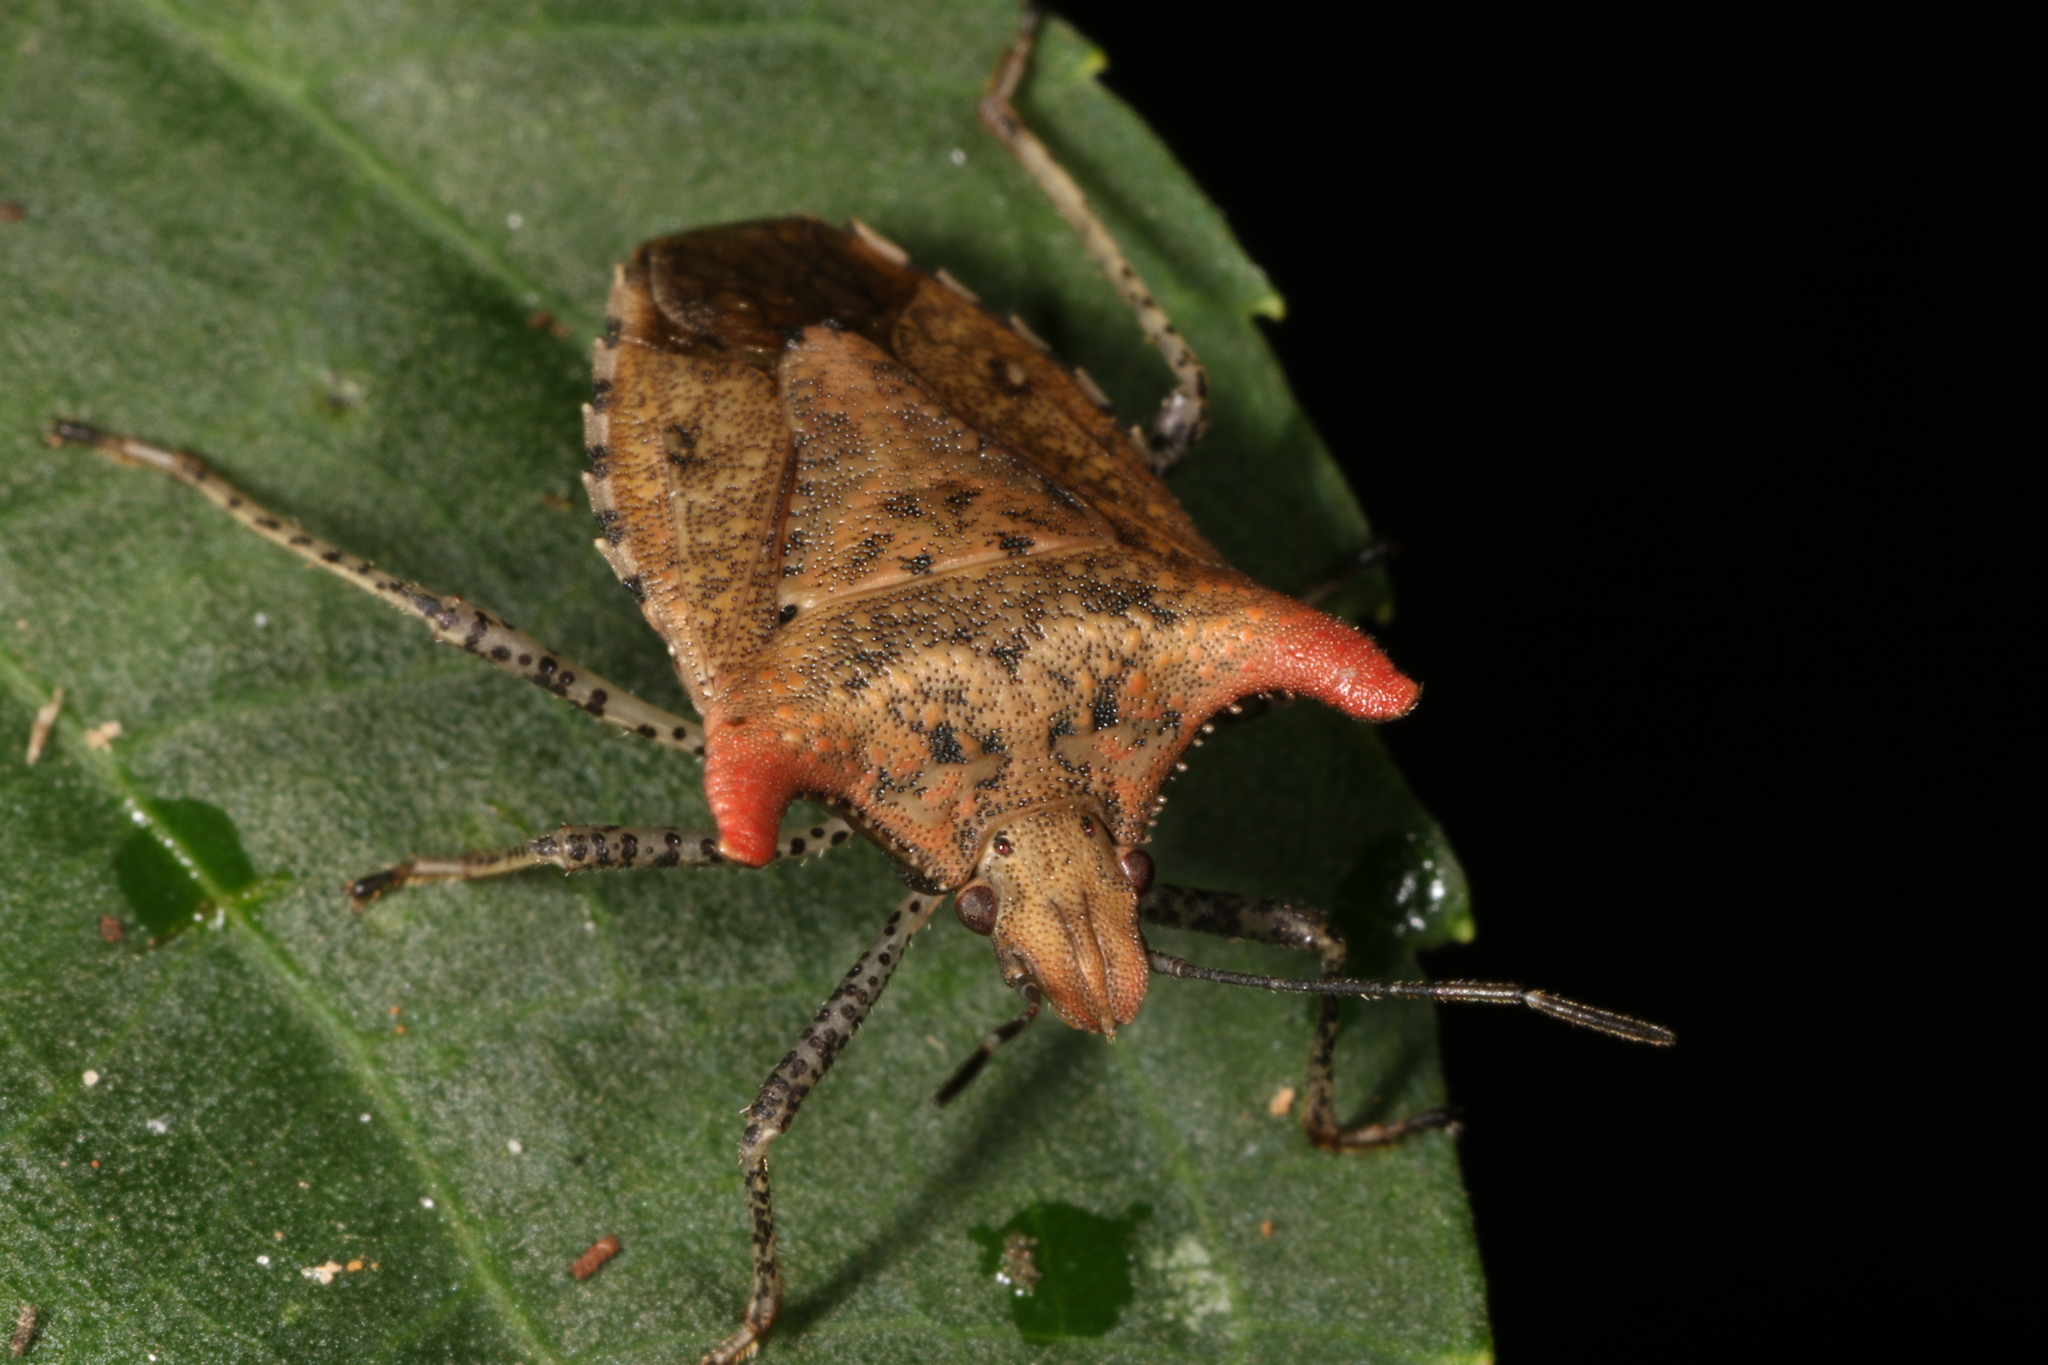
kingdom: Animalia
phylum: Arthropoda
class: Insecta
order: Hemiptera
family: Pentatomidae
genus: Euschistus
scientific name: Euschistus cornutus
